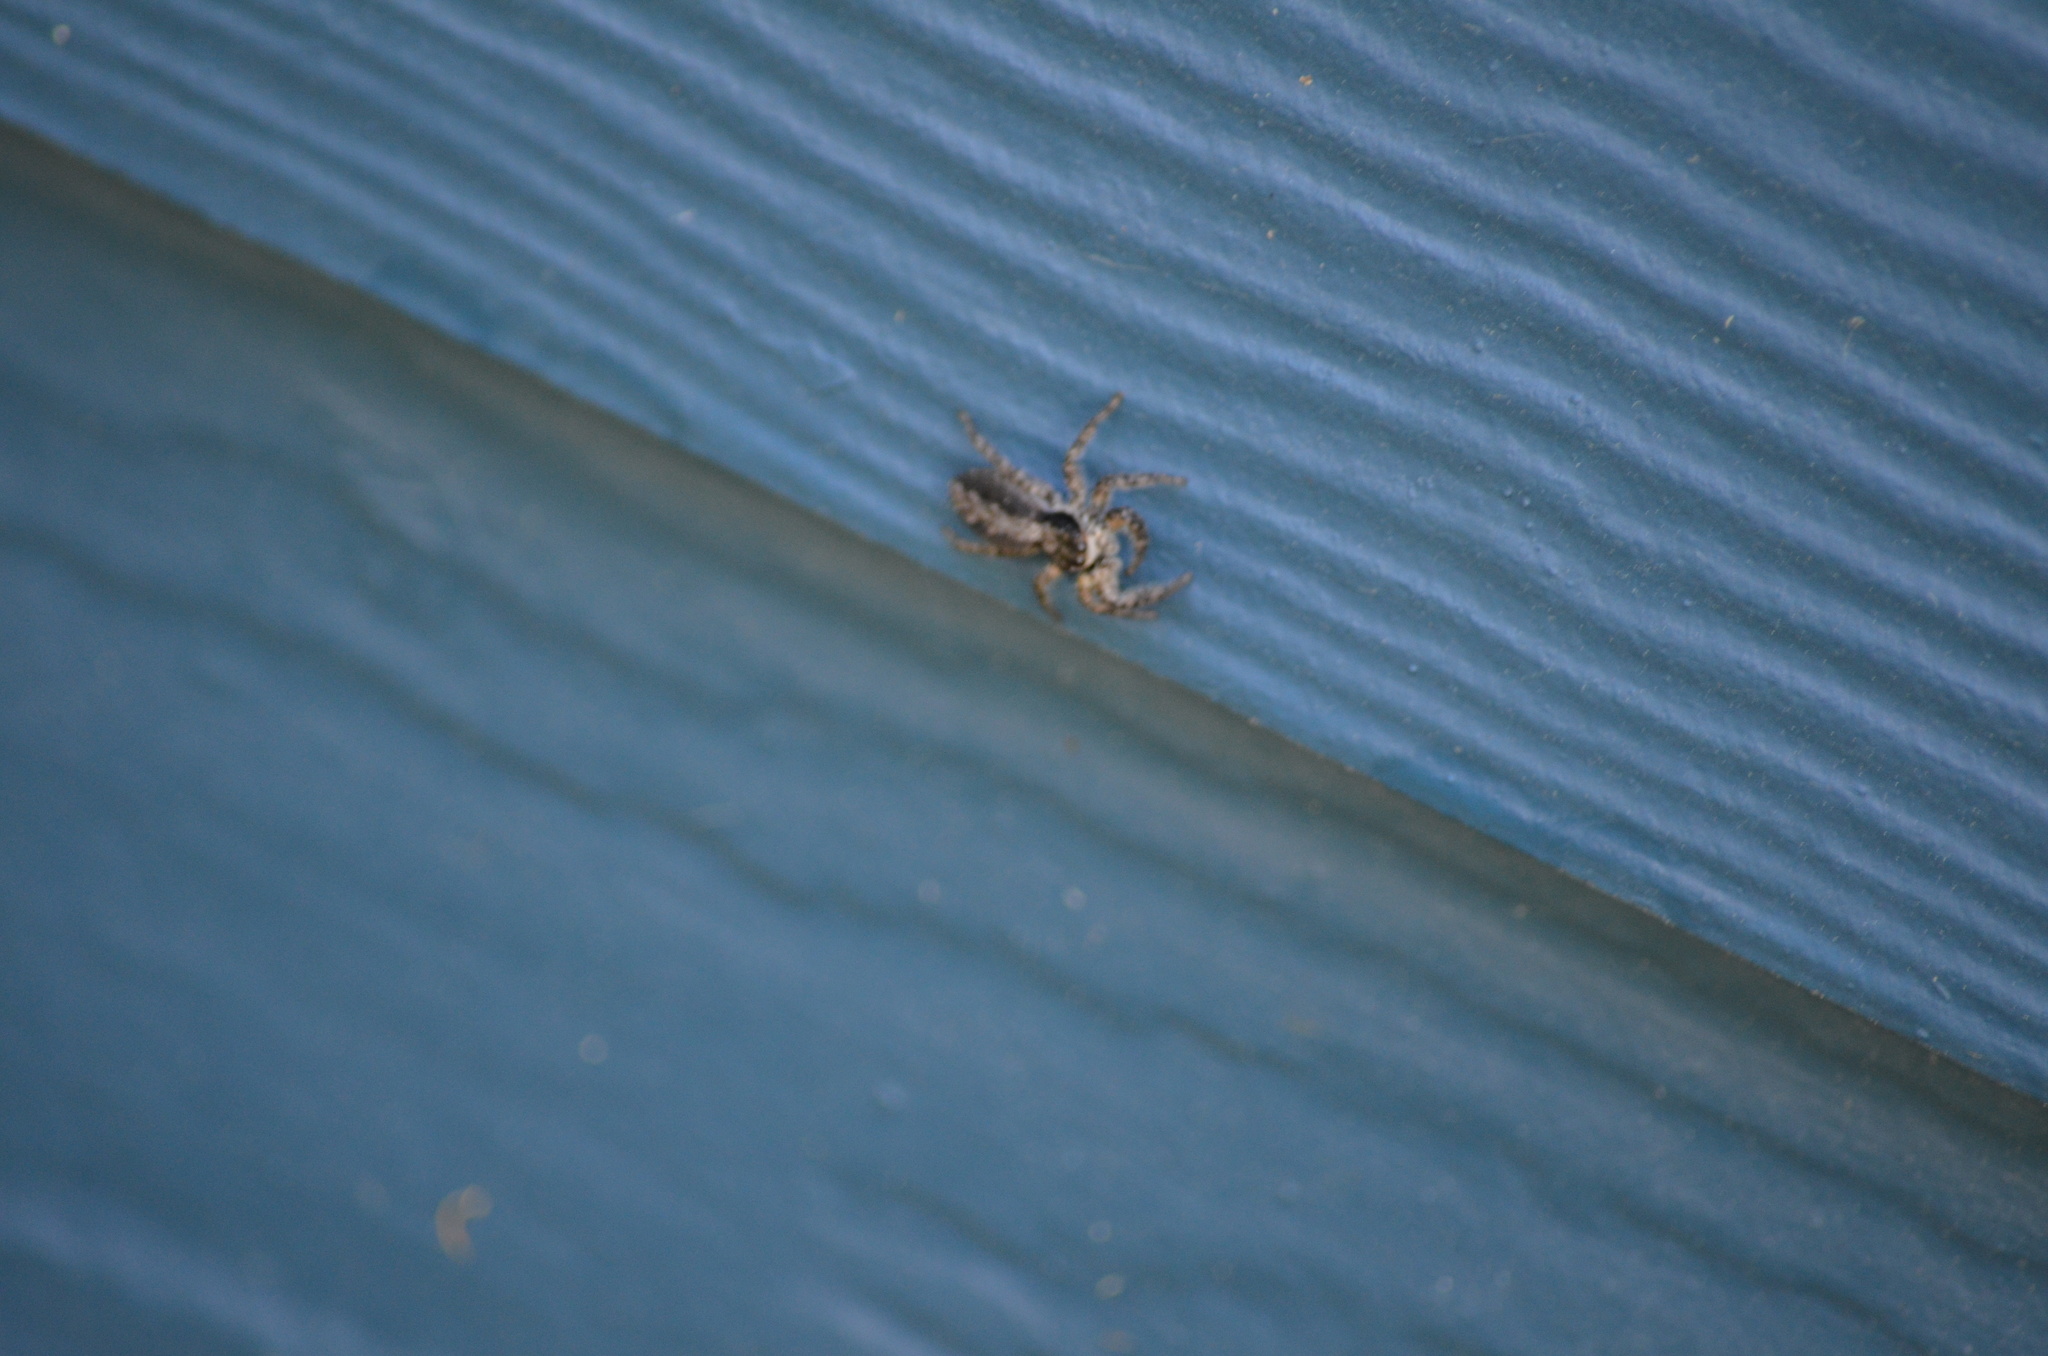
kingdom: Animalia
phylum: Arthropoda
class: Arachnida
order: Araneae
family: Salticidae
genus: Platycryptus
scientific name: Platycryptus californicus
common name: Jumping spiders
